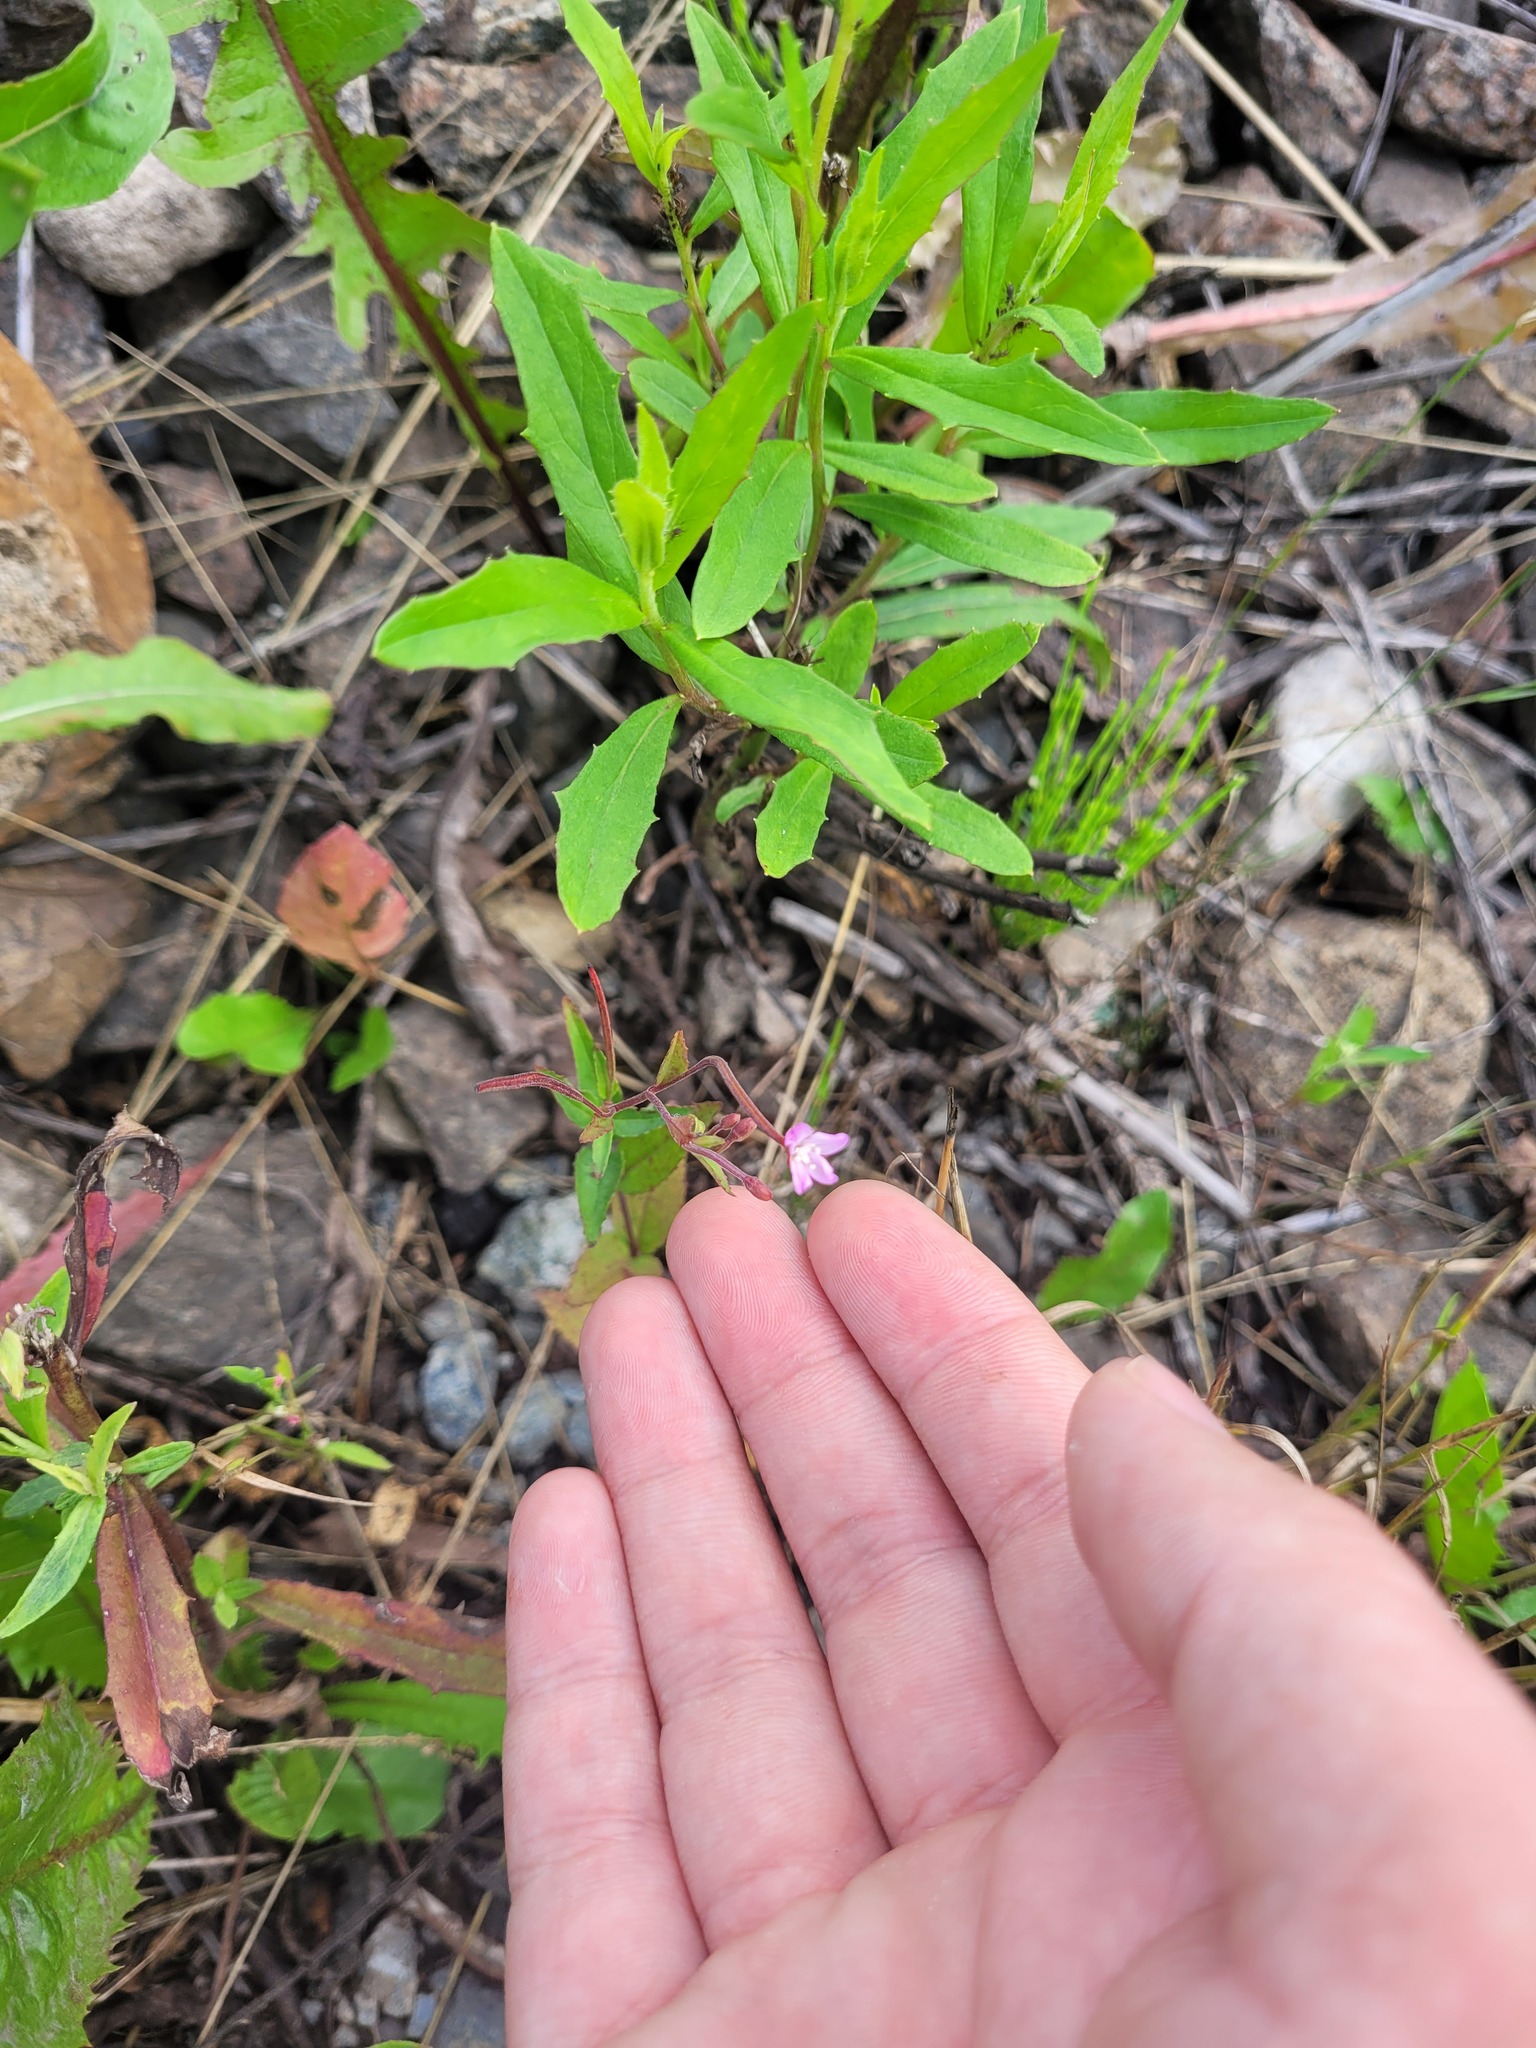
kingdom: Plantae
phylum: Tracheophyta
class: Magnoliopsida
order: Myrtales
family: Onagraceae
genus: Epilobium
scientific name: Epilobium montanum
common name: Broad-leaved willowherb
